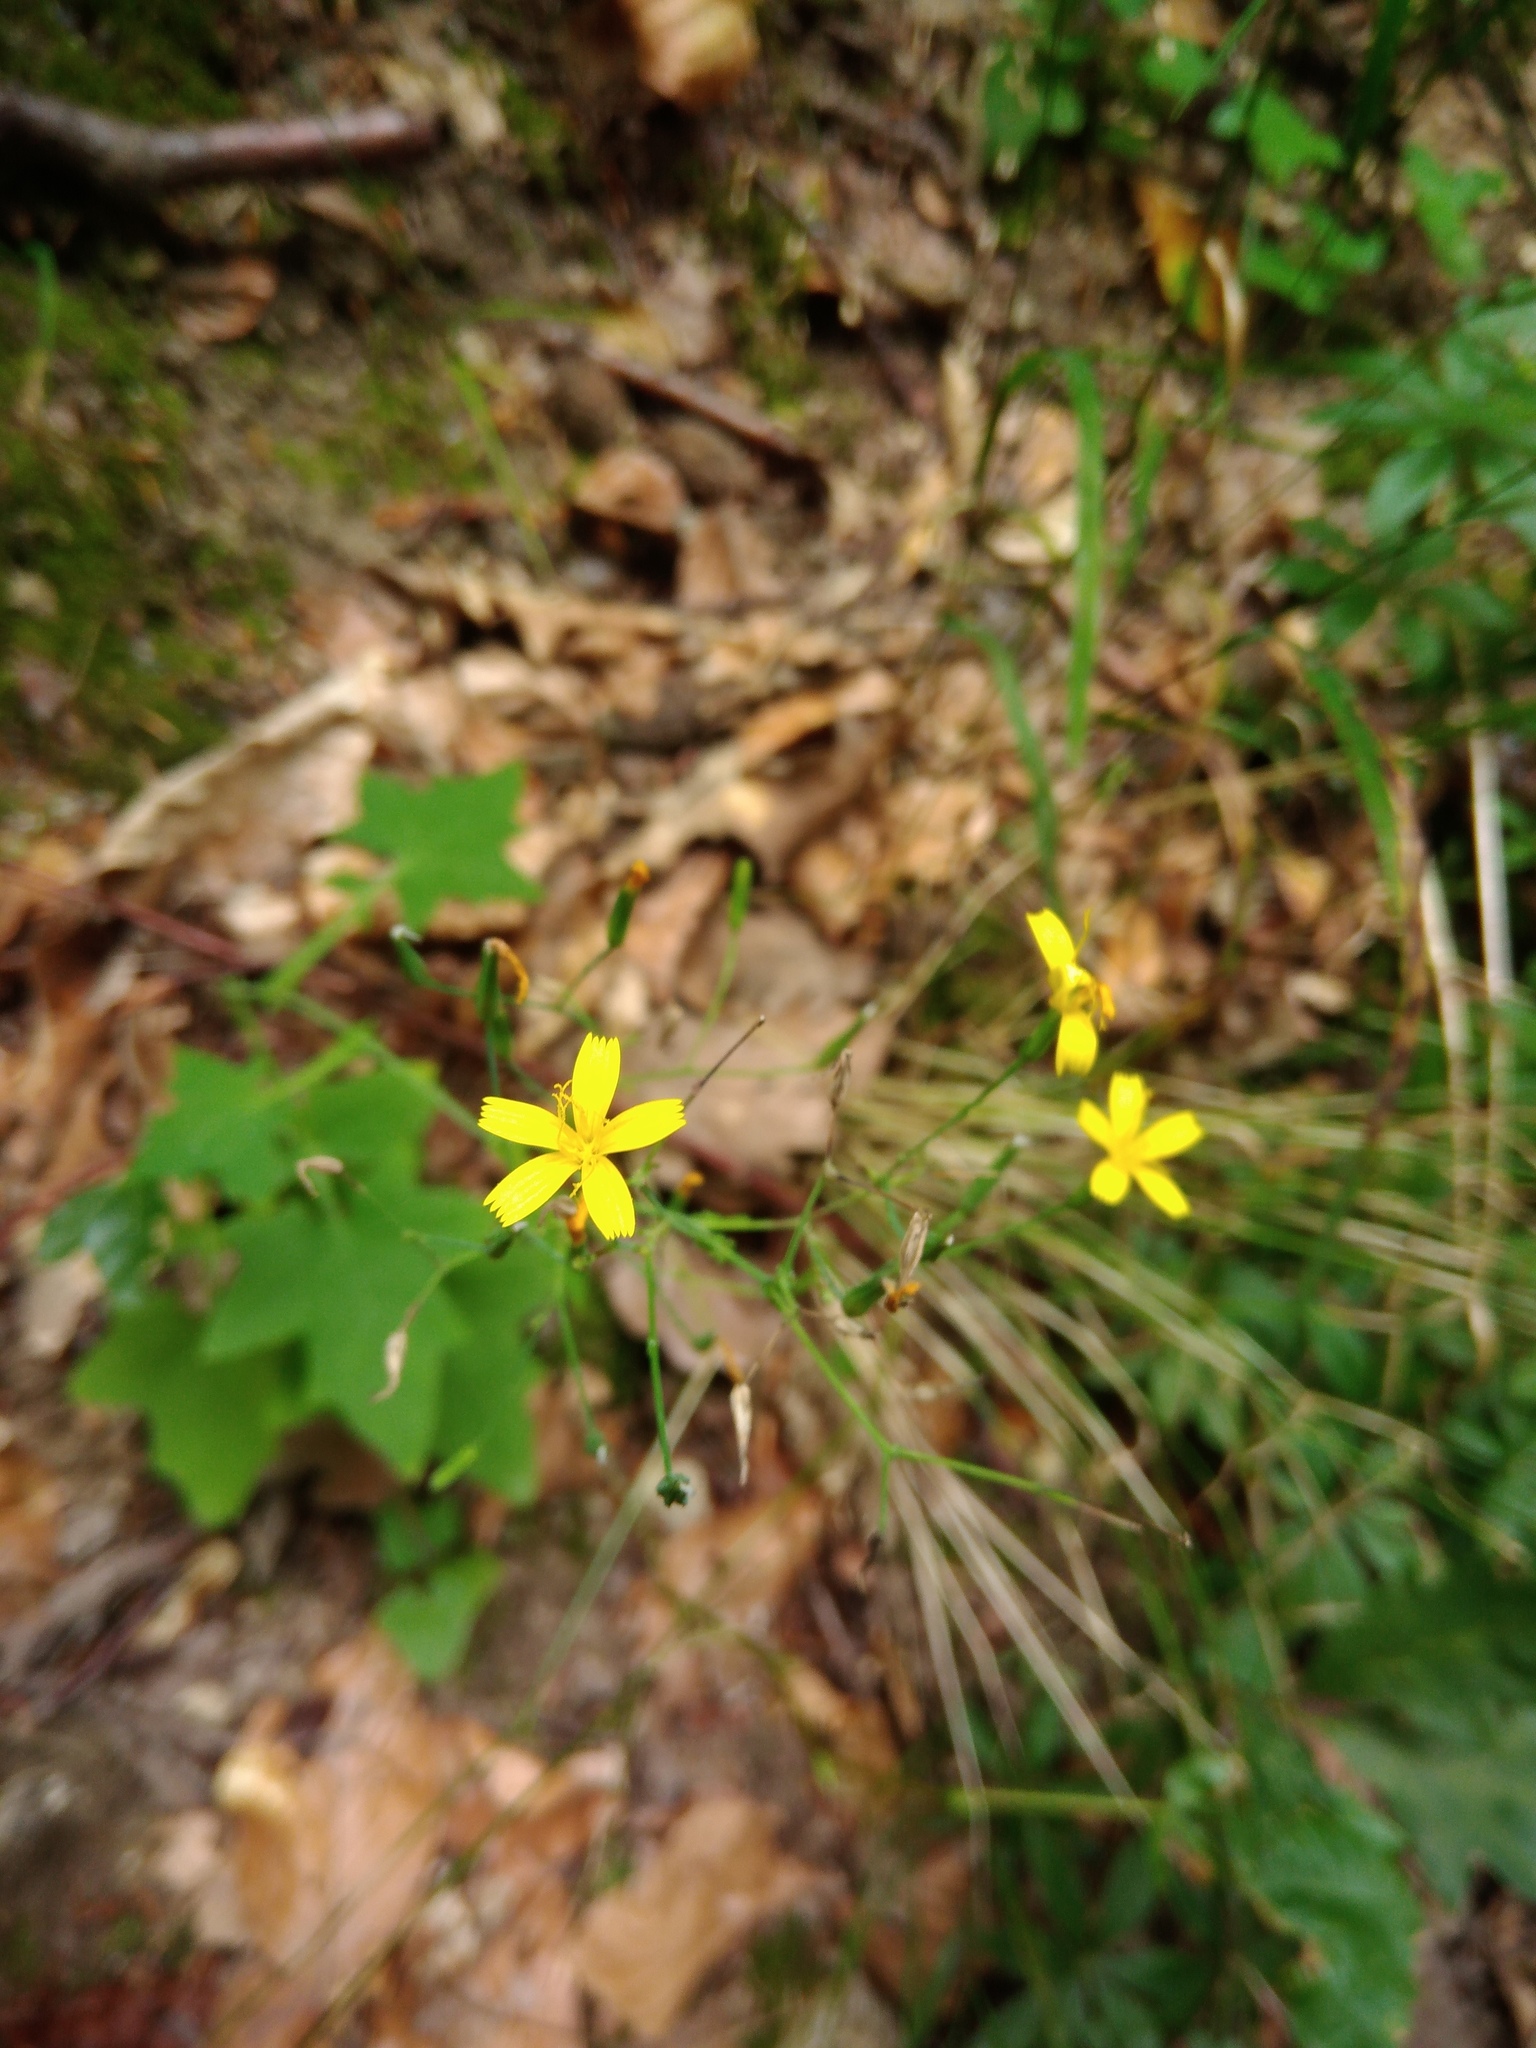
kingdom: Plantae
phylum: Tracheophyta
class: Magnoliopsida
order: Asterales
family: Asteraceae
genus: Mycelis
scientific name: Mycelis muralis
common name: Wall lettuce
